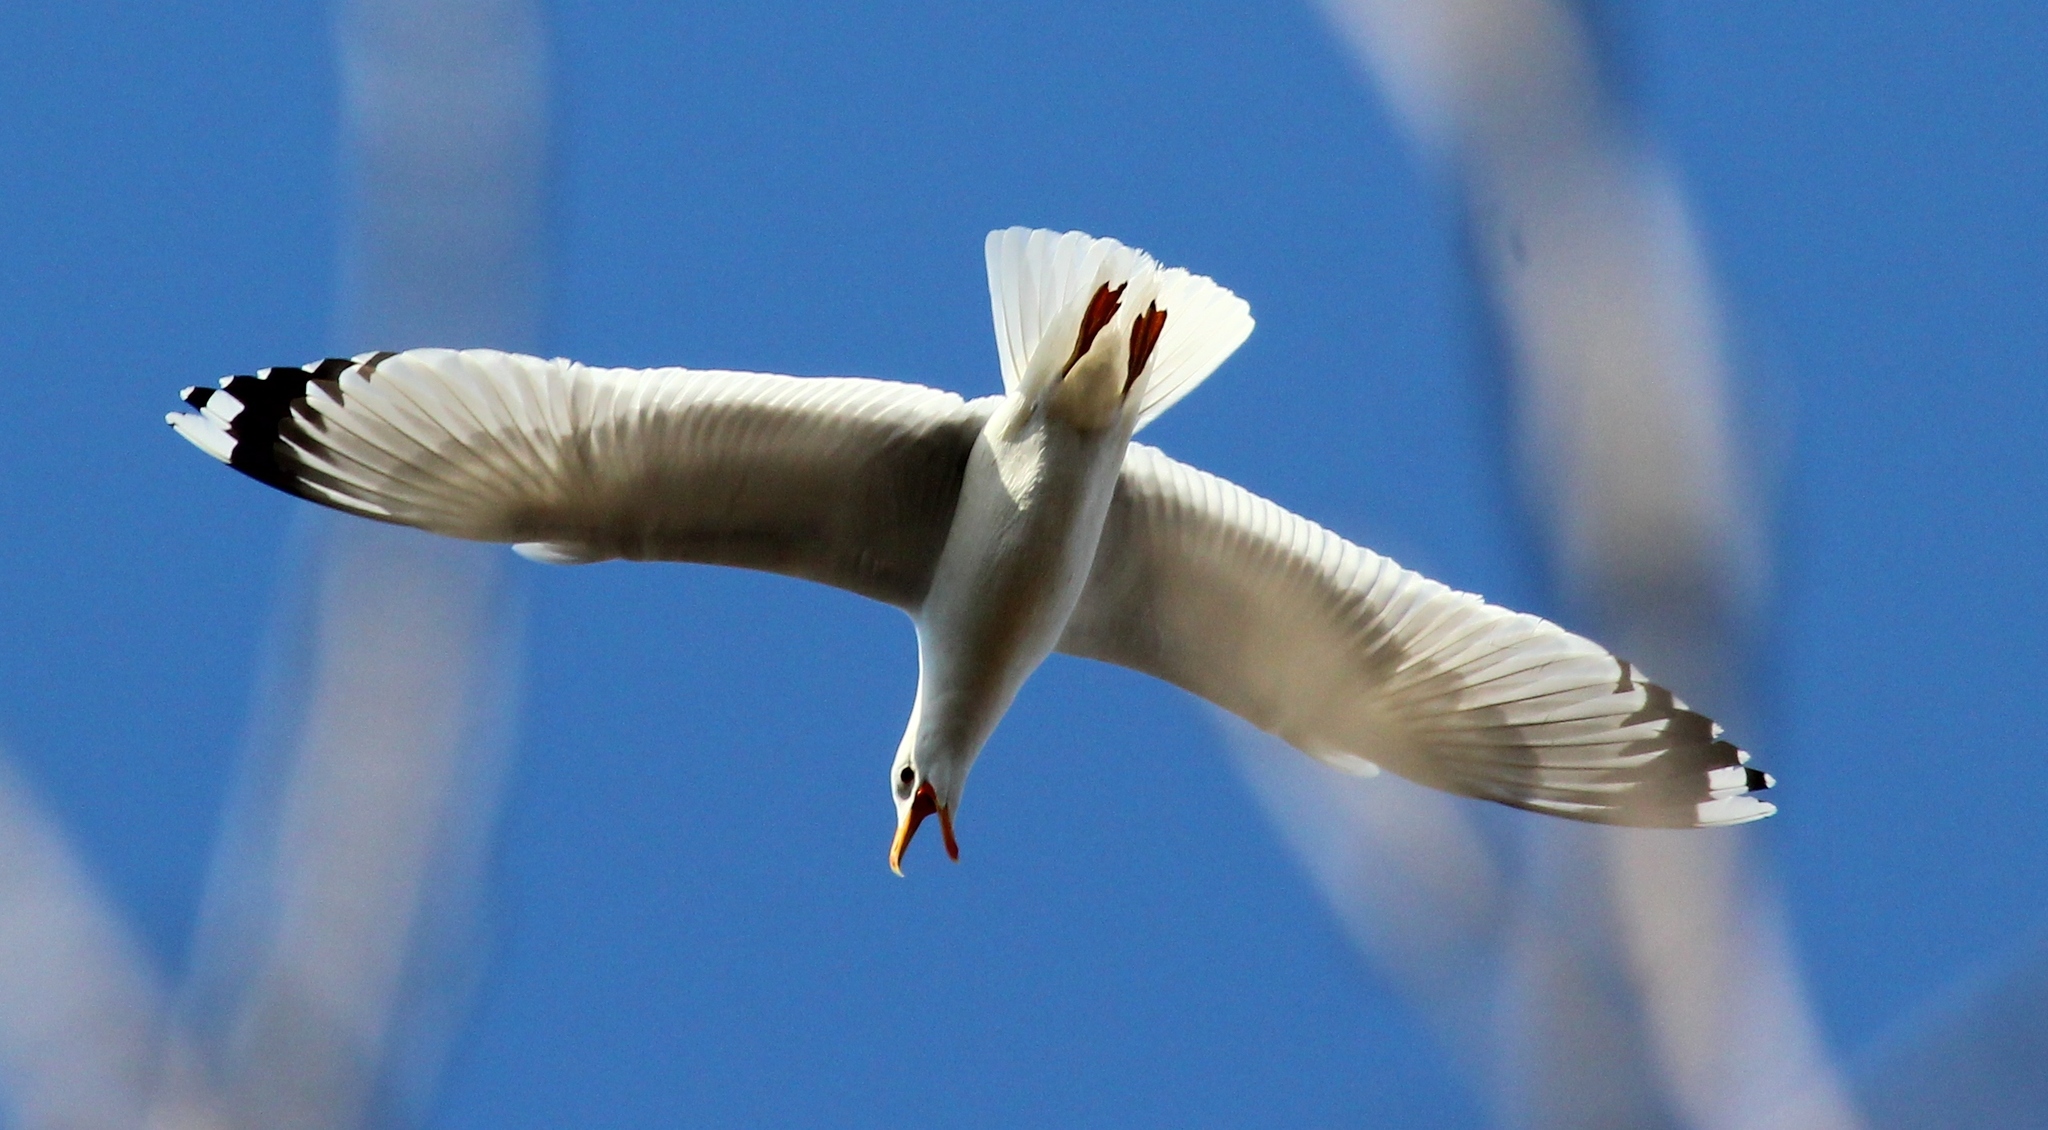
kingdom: Animalia
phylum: Chordata
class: Aves
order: Charadriiformes
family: Laridae
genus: Larus
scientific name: Larus cachinnans
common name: Caspian gull
